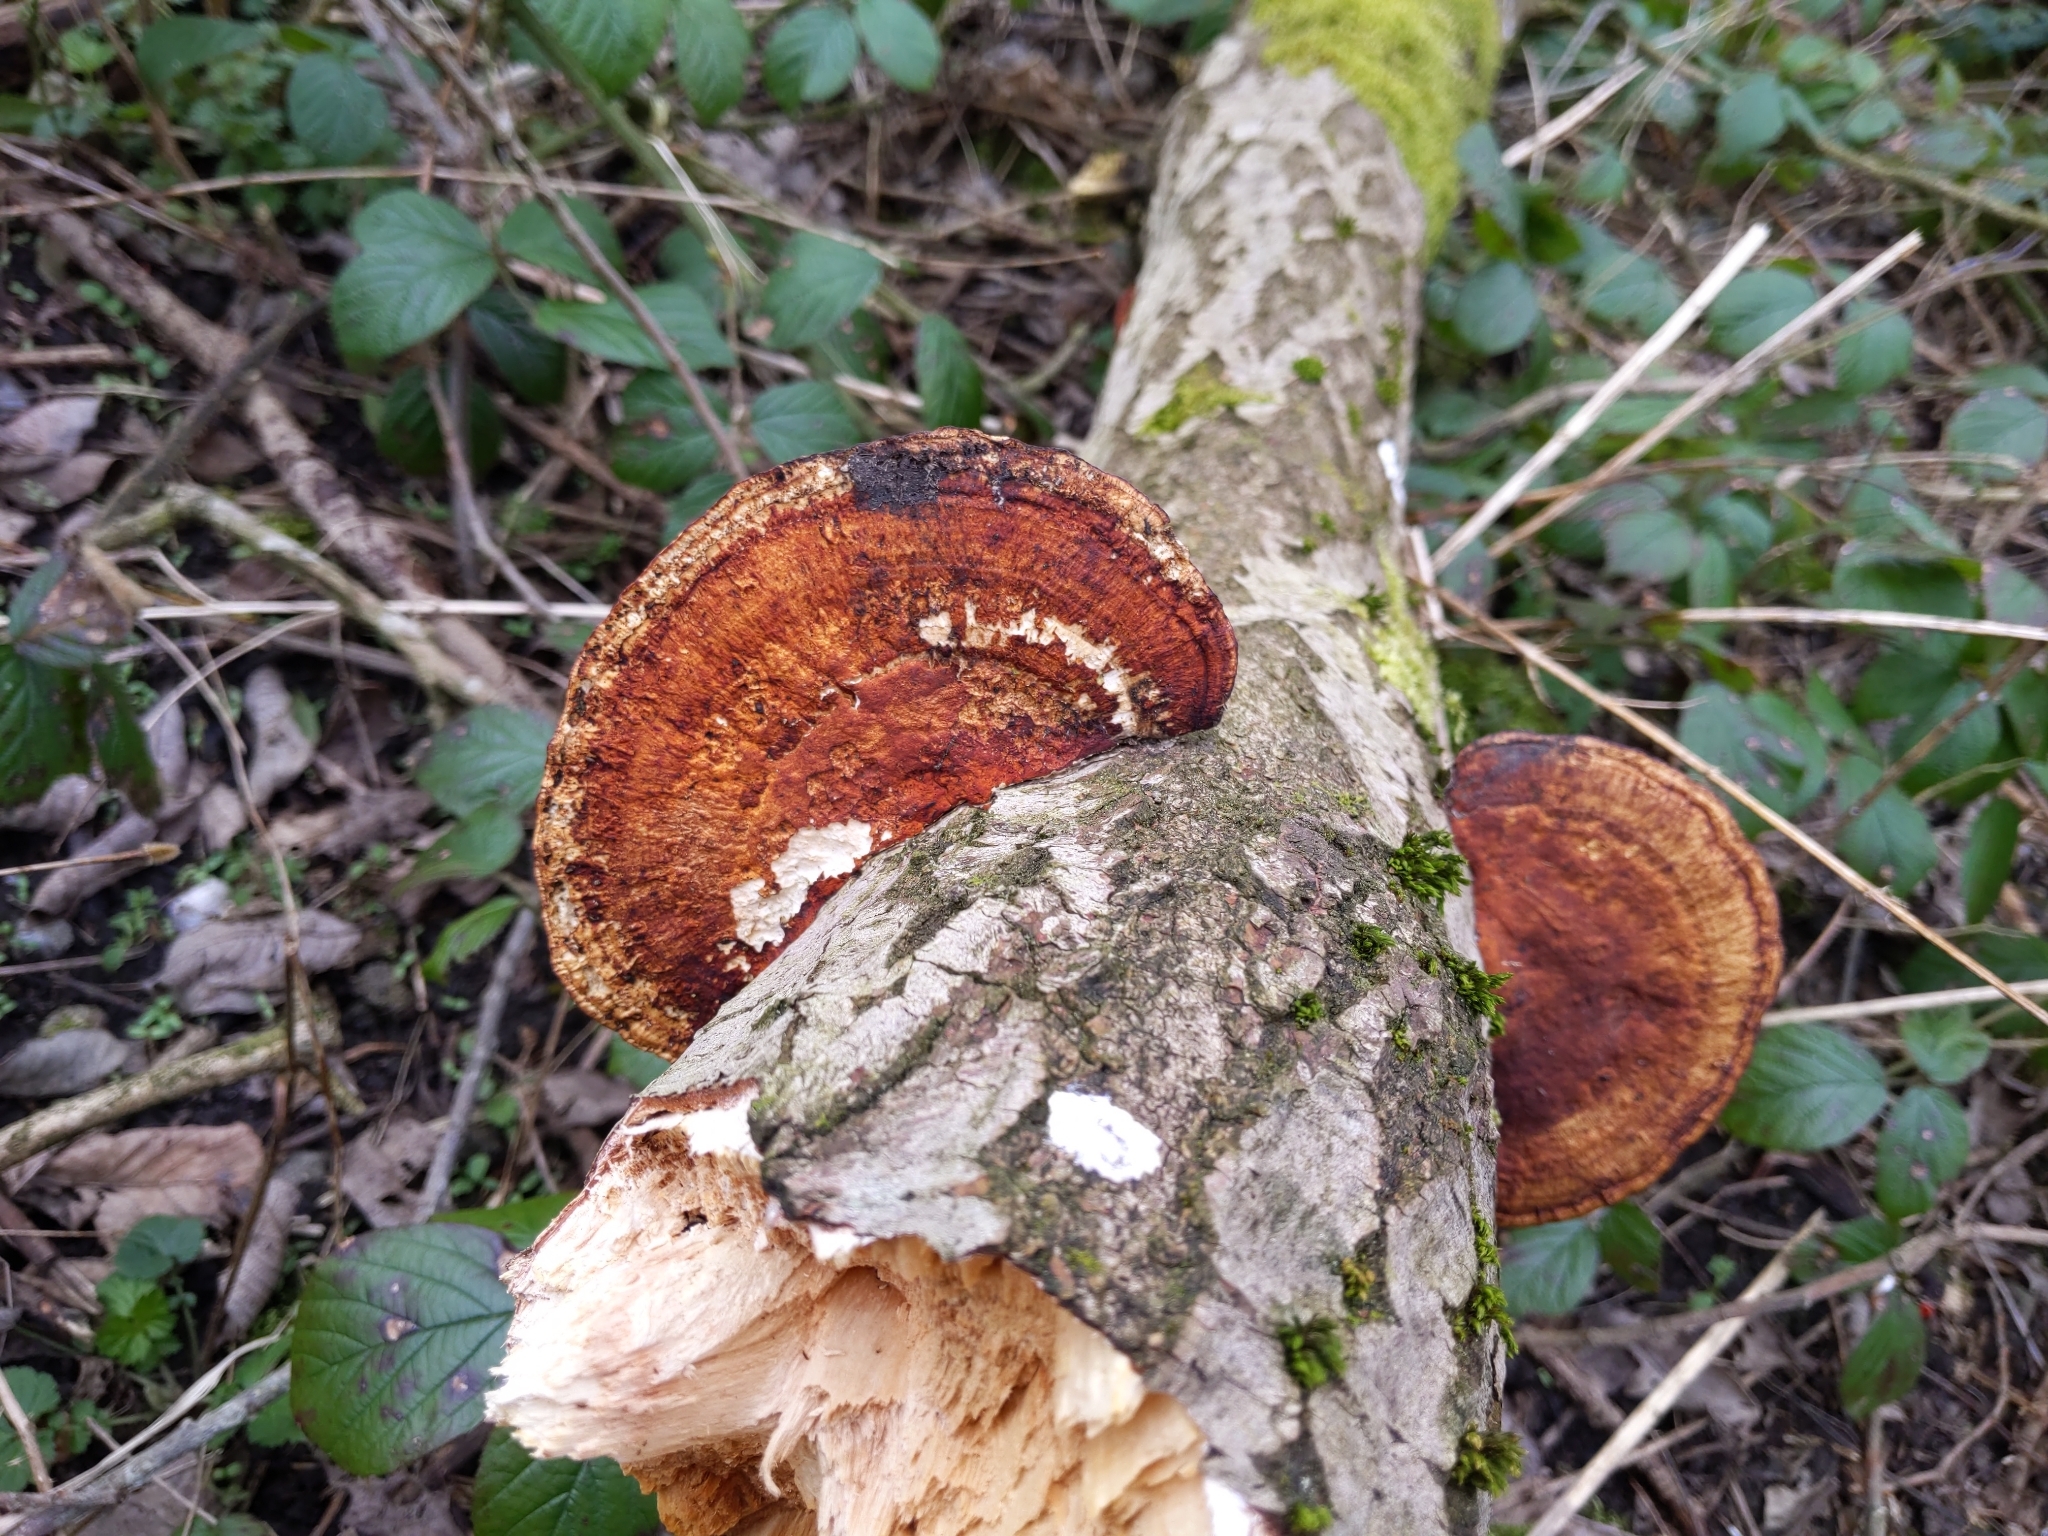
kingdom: Fungi
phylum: Basidiomycota
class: Agaricomycetes
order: Polyporales
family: Polyporaceae
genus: Daedaleopsis
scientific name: Daedaleopsis confragosa
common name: Blushing bracket
